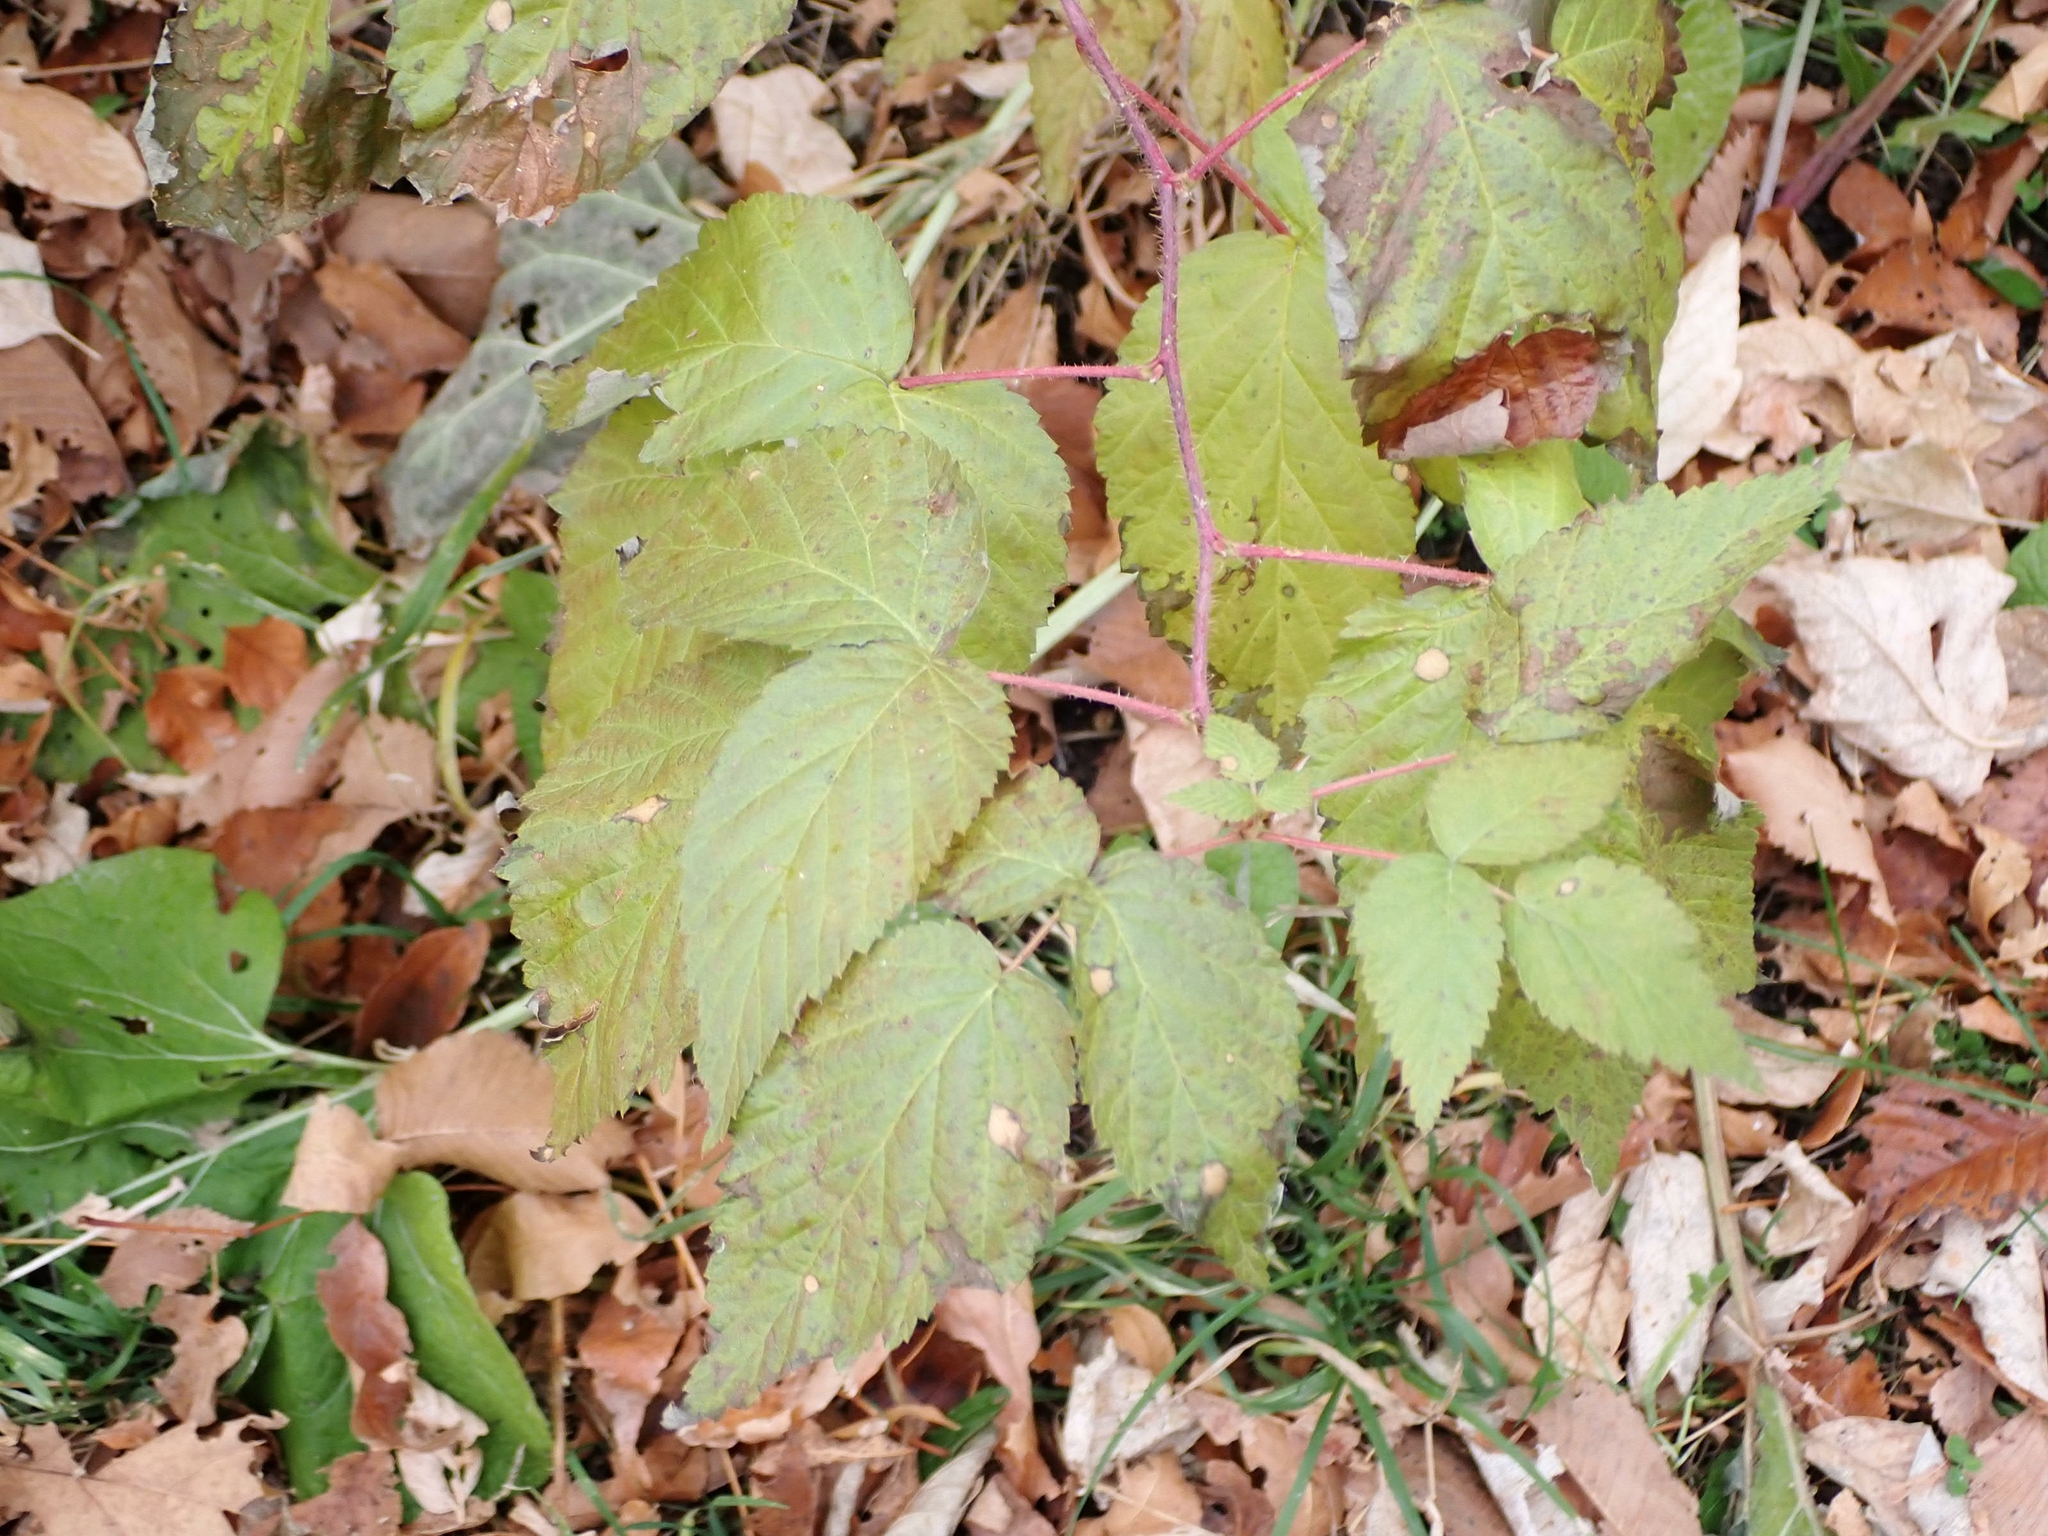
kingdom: Plantae
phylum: Tracheophyta
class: Magnoliopsida
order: Rosales
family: Rosaceae
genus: Rubus
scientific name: Rubus idaeus
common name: Raspberry
